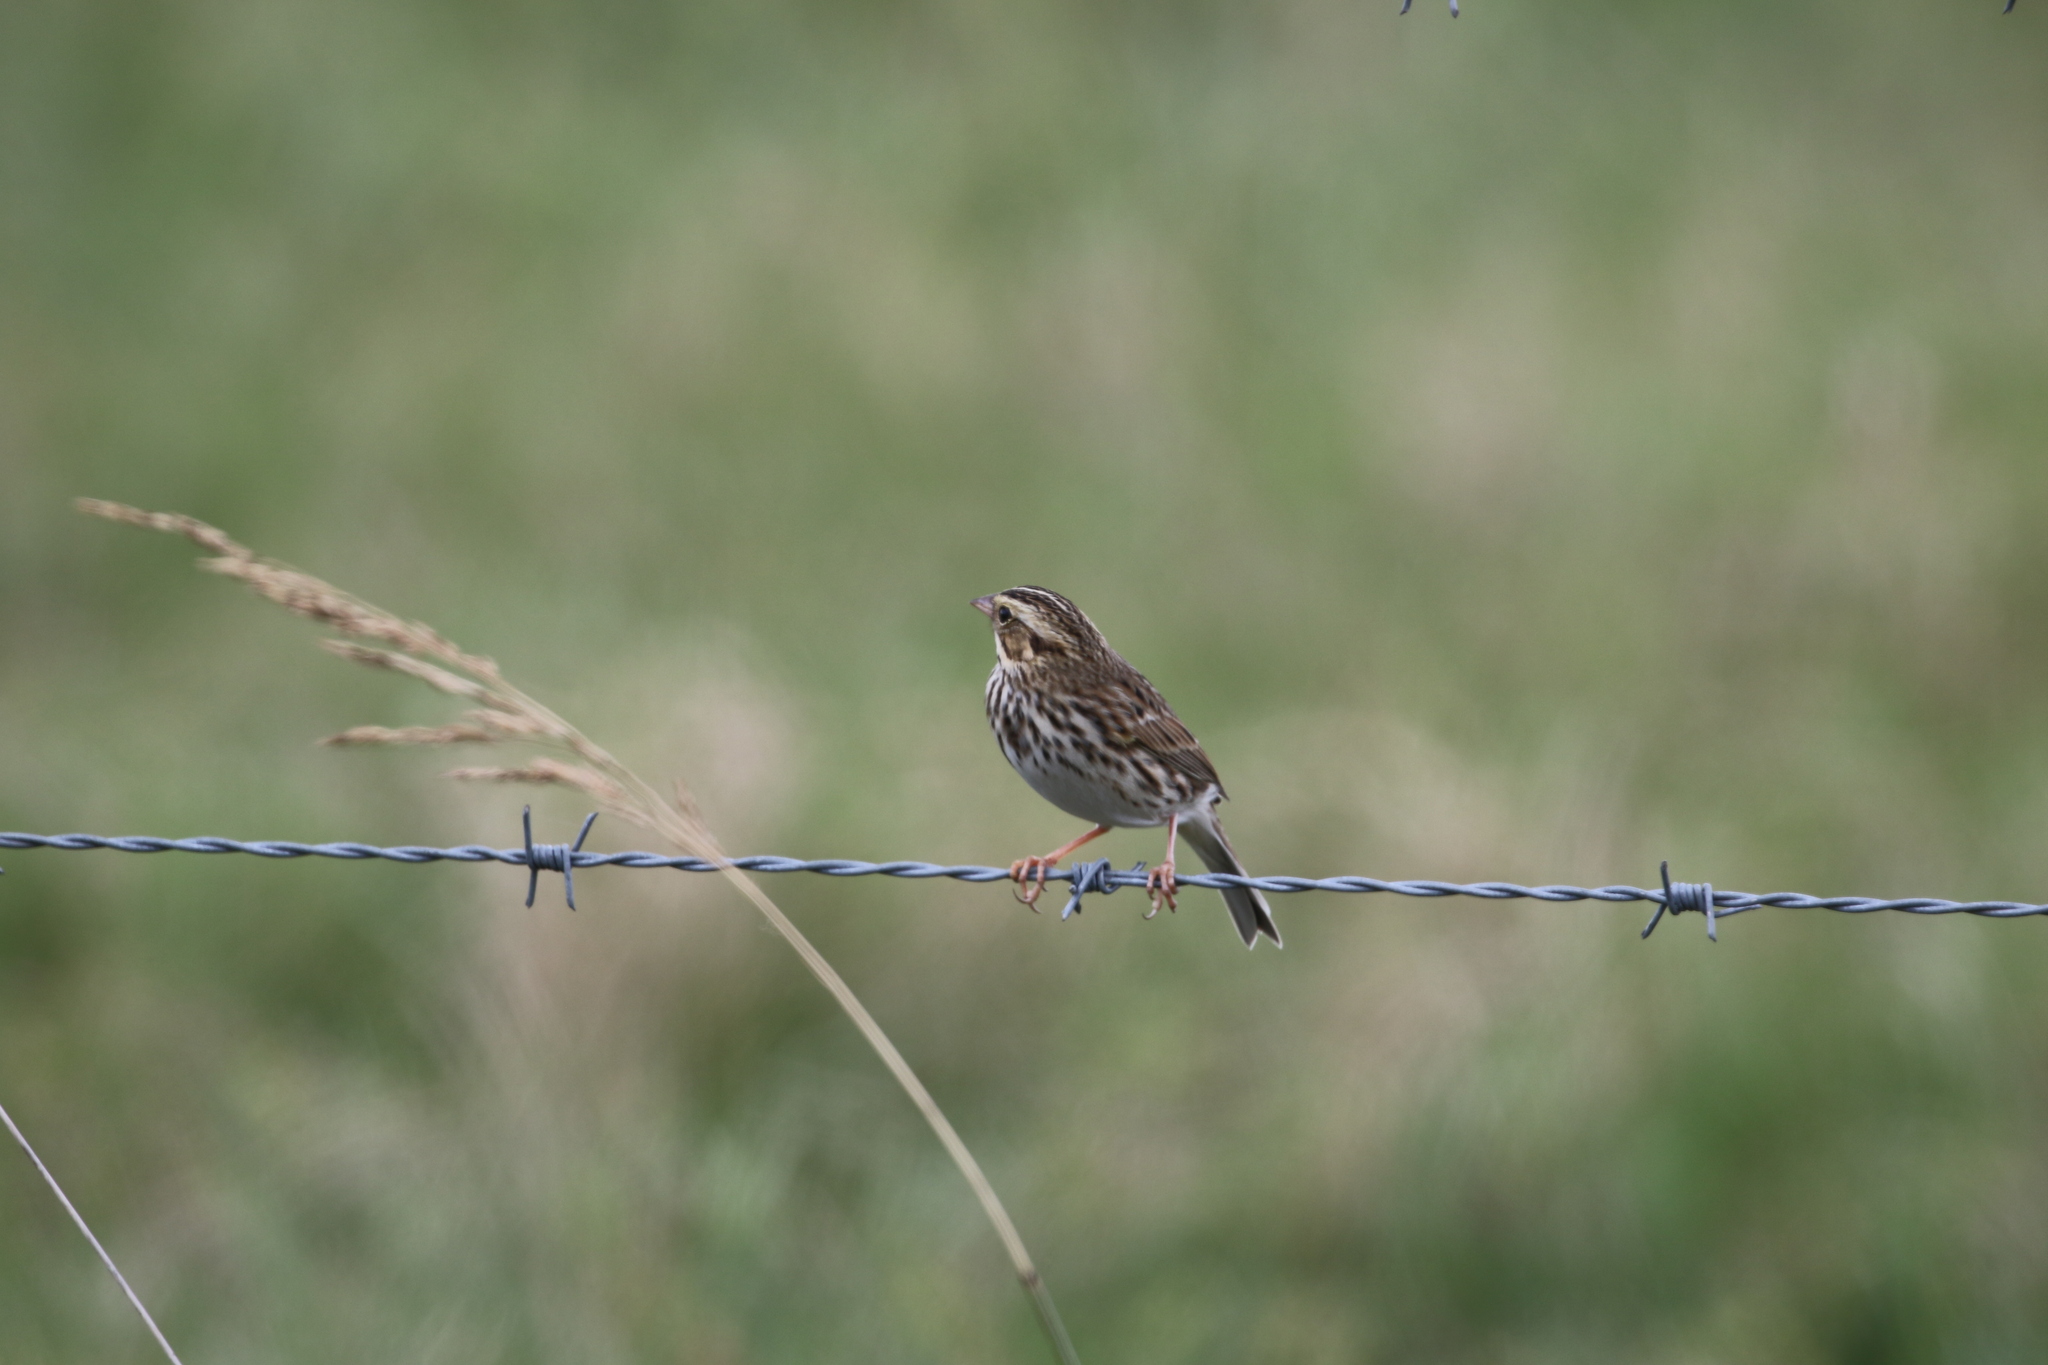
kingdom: Animalia
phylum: Chordata
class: Aves
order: Passeriformes
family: Passerellidae
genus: Passerculus
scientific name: Passerculus sandwichensis
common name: Savannah sparrow
